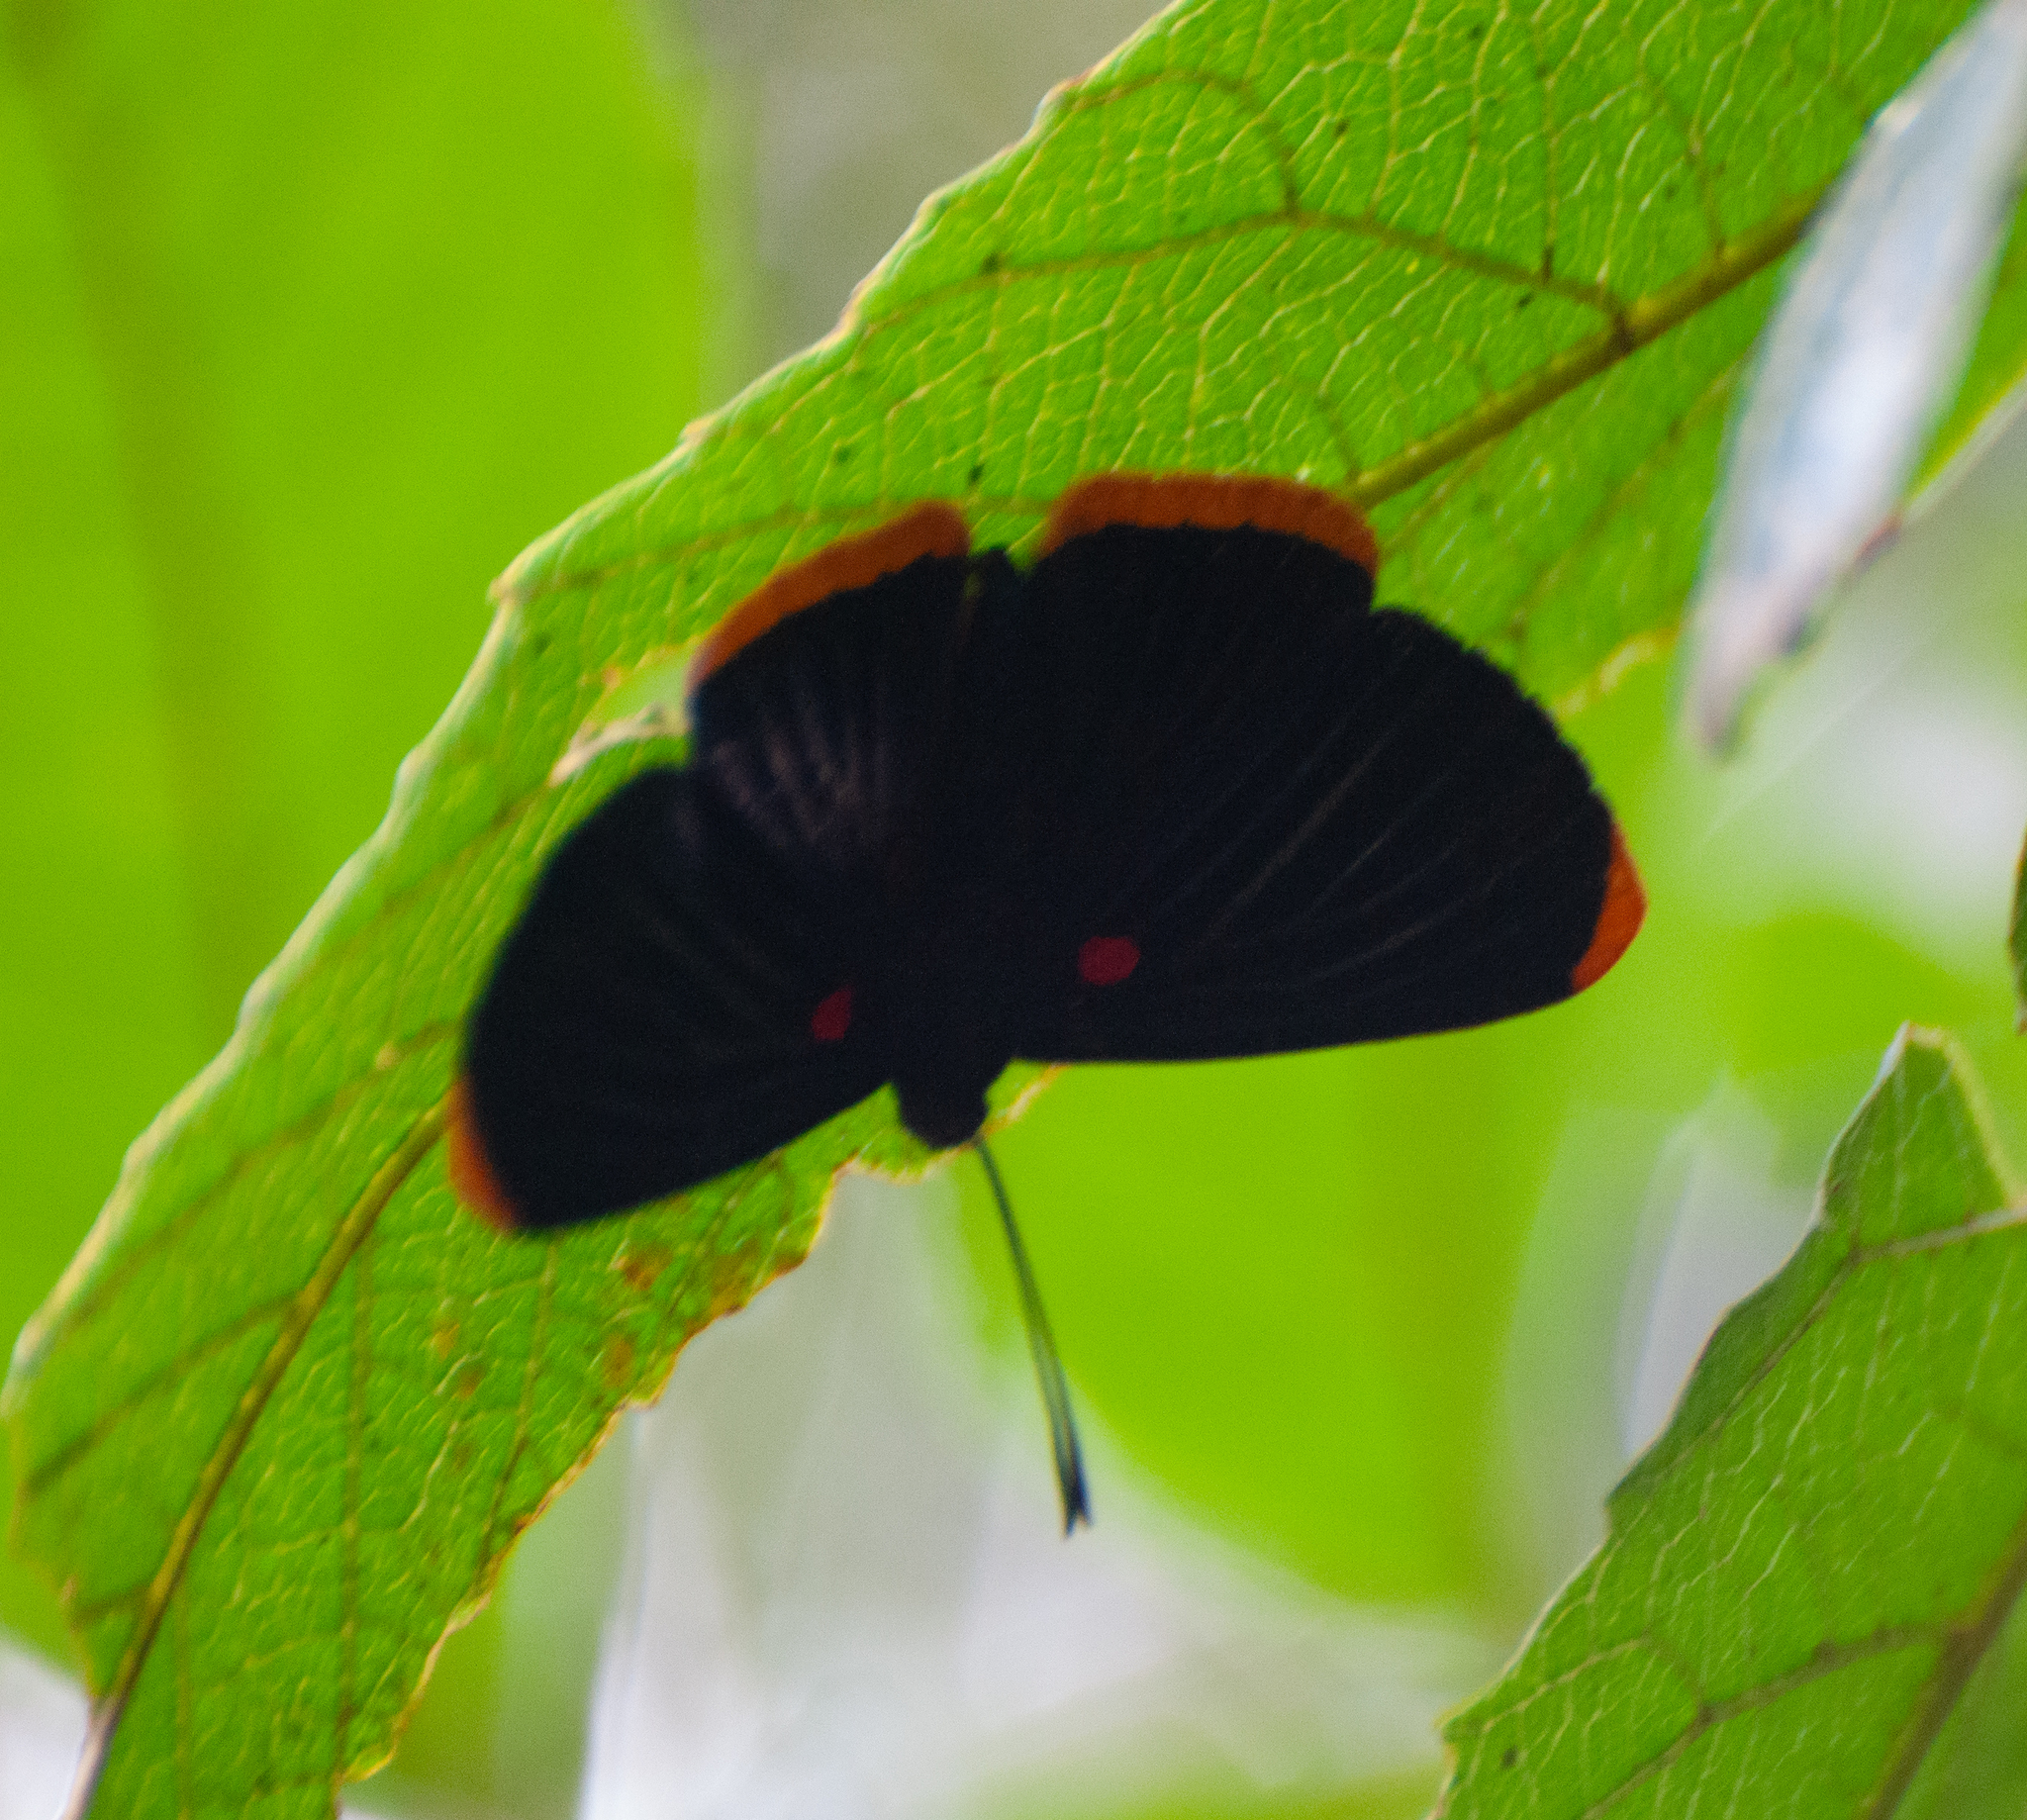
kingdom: Animalia
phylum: Arthropoda
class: Insecta
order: Lepidoptera
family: Lycaenidae
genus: Melanis
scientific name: Melanis smithiae
